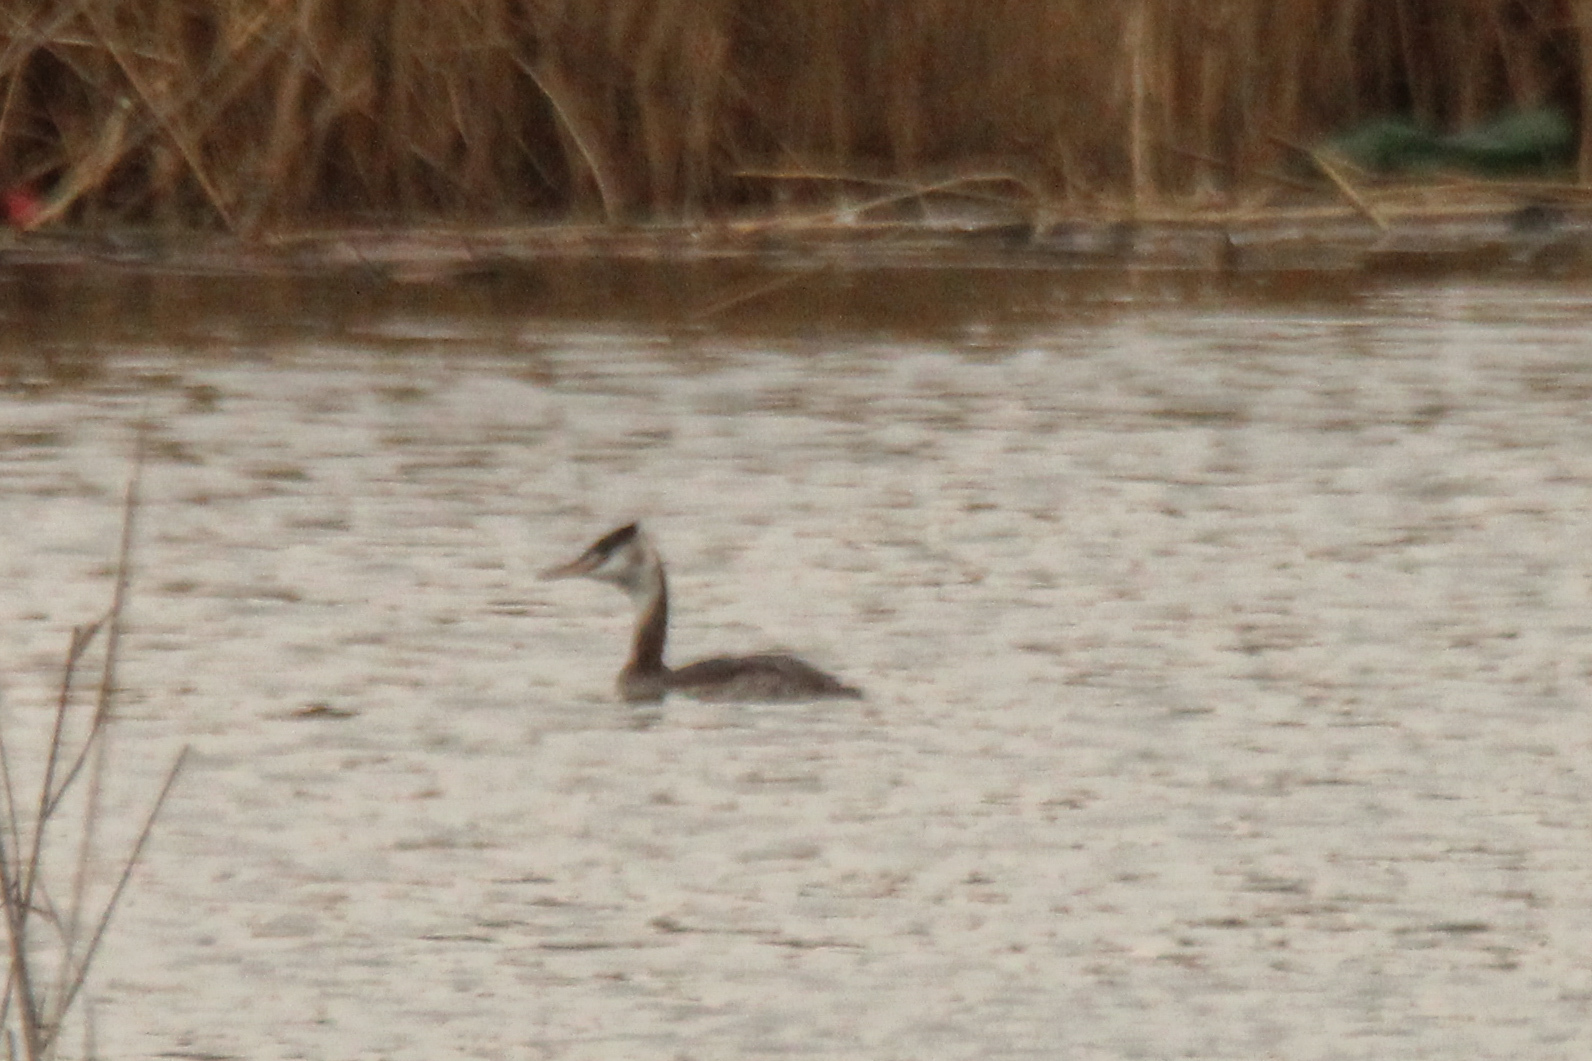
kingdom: Animalia
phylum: Chordata
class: Aves
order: Podicipediformes
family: Podicipedidae
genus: Podiceps
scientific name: Podiceps cristatus
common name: Great crested grebe
